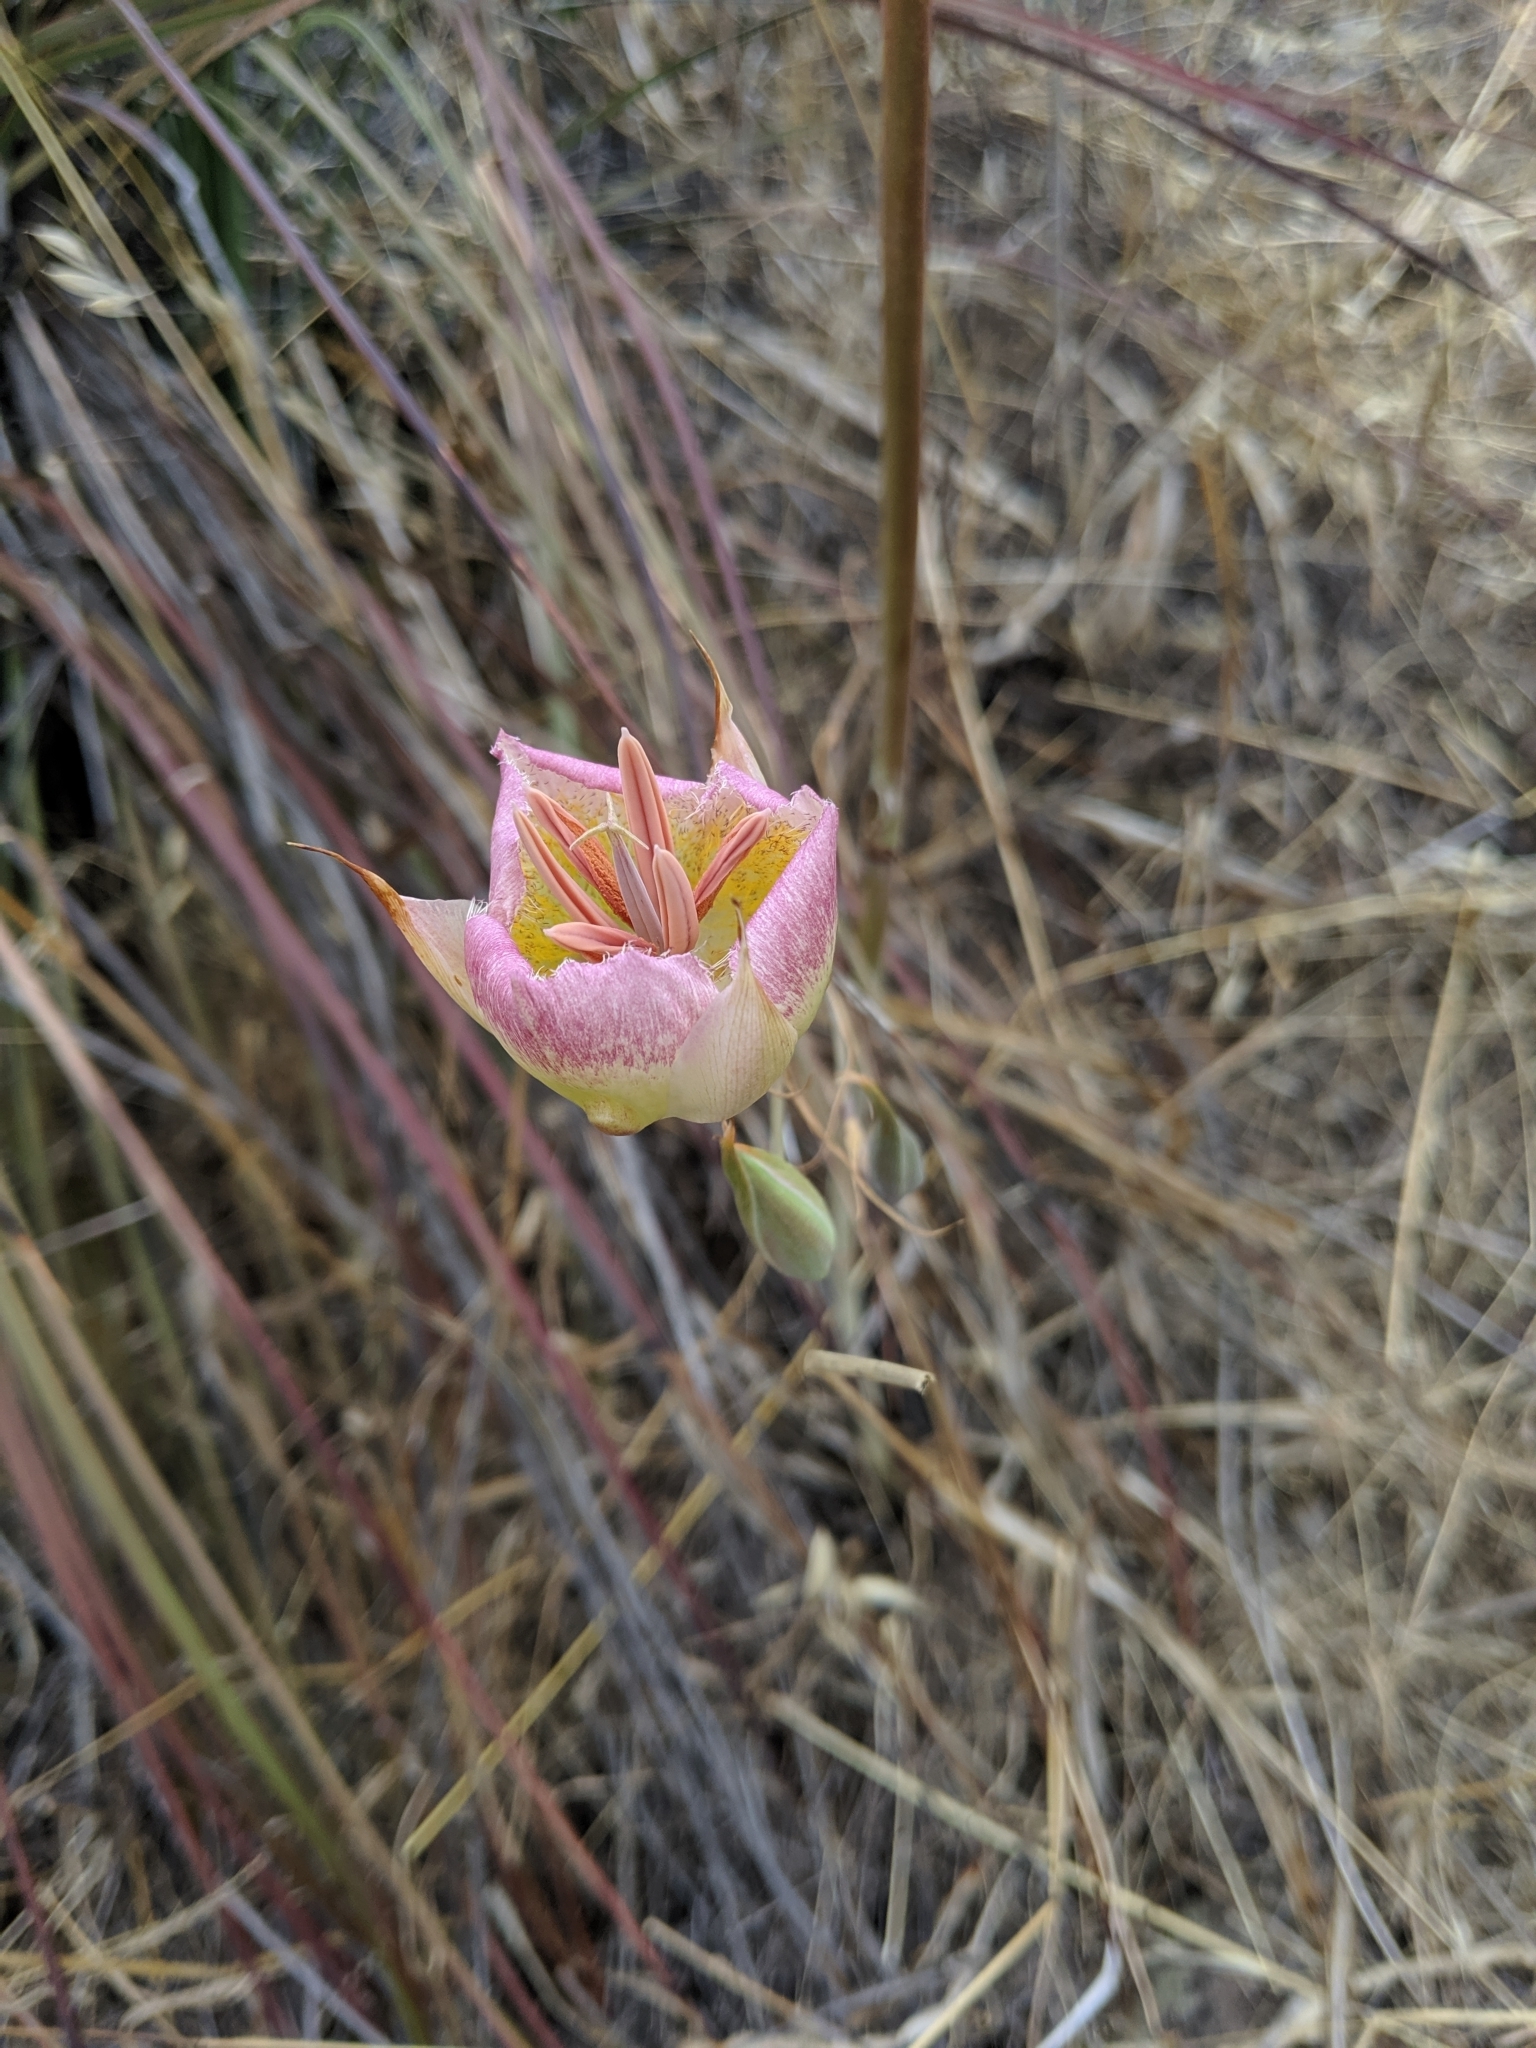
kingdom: Plantae
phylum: Tracheophyta
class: Liliopsida
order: Liliales
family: Liliaceae
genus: Calochortus
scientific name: Calochortus plummerae
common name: Plummer's mariposa-lily
